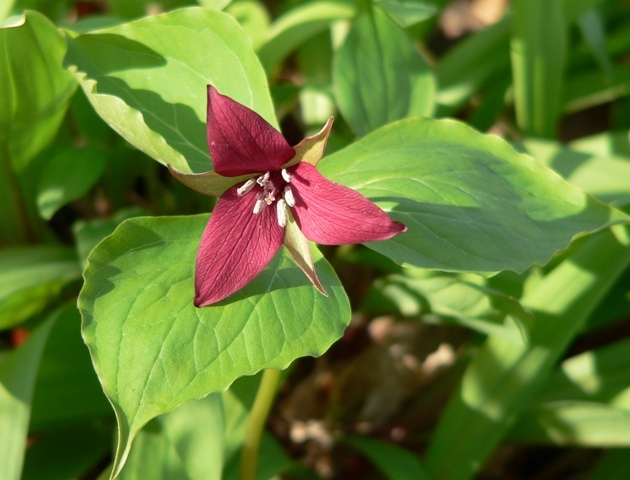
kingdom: Plantae
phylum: Tracheophyta
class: Liliopsida
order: Liliales
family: Melanthiaceae
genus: Trillium
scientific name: Trillium erectum
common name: Purple trillium
